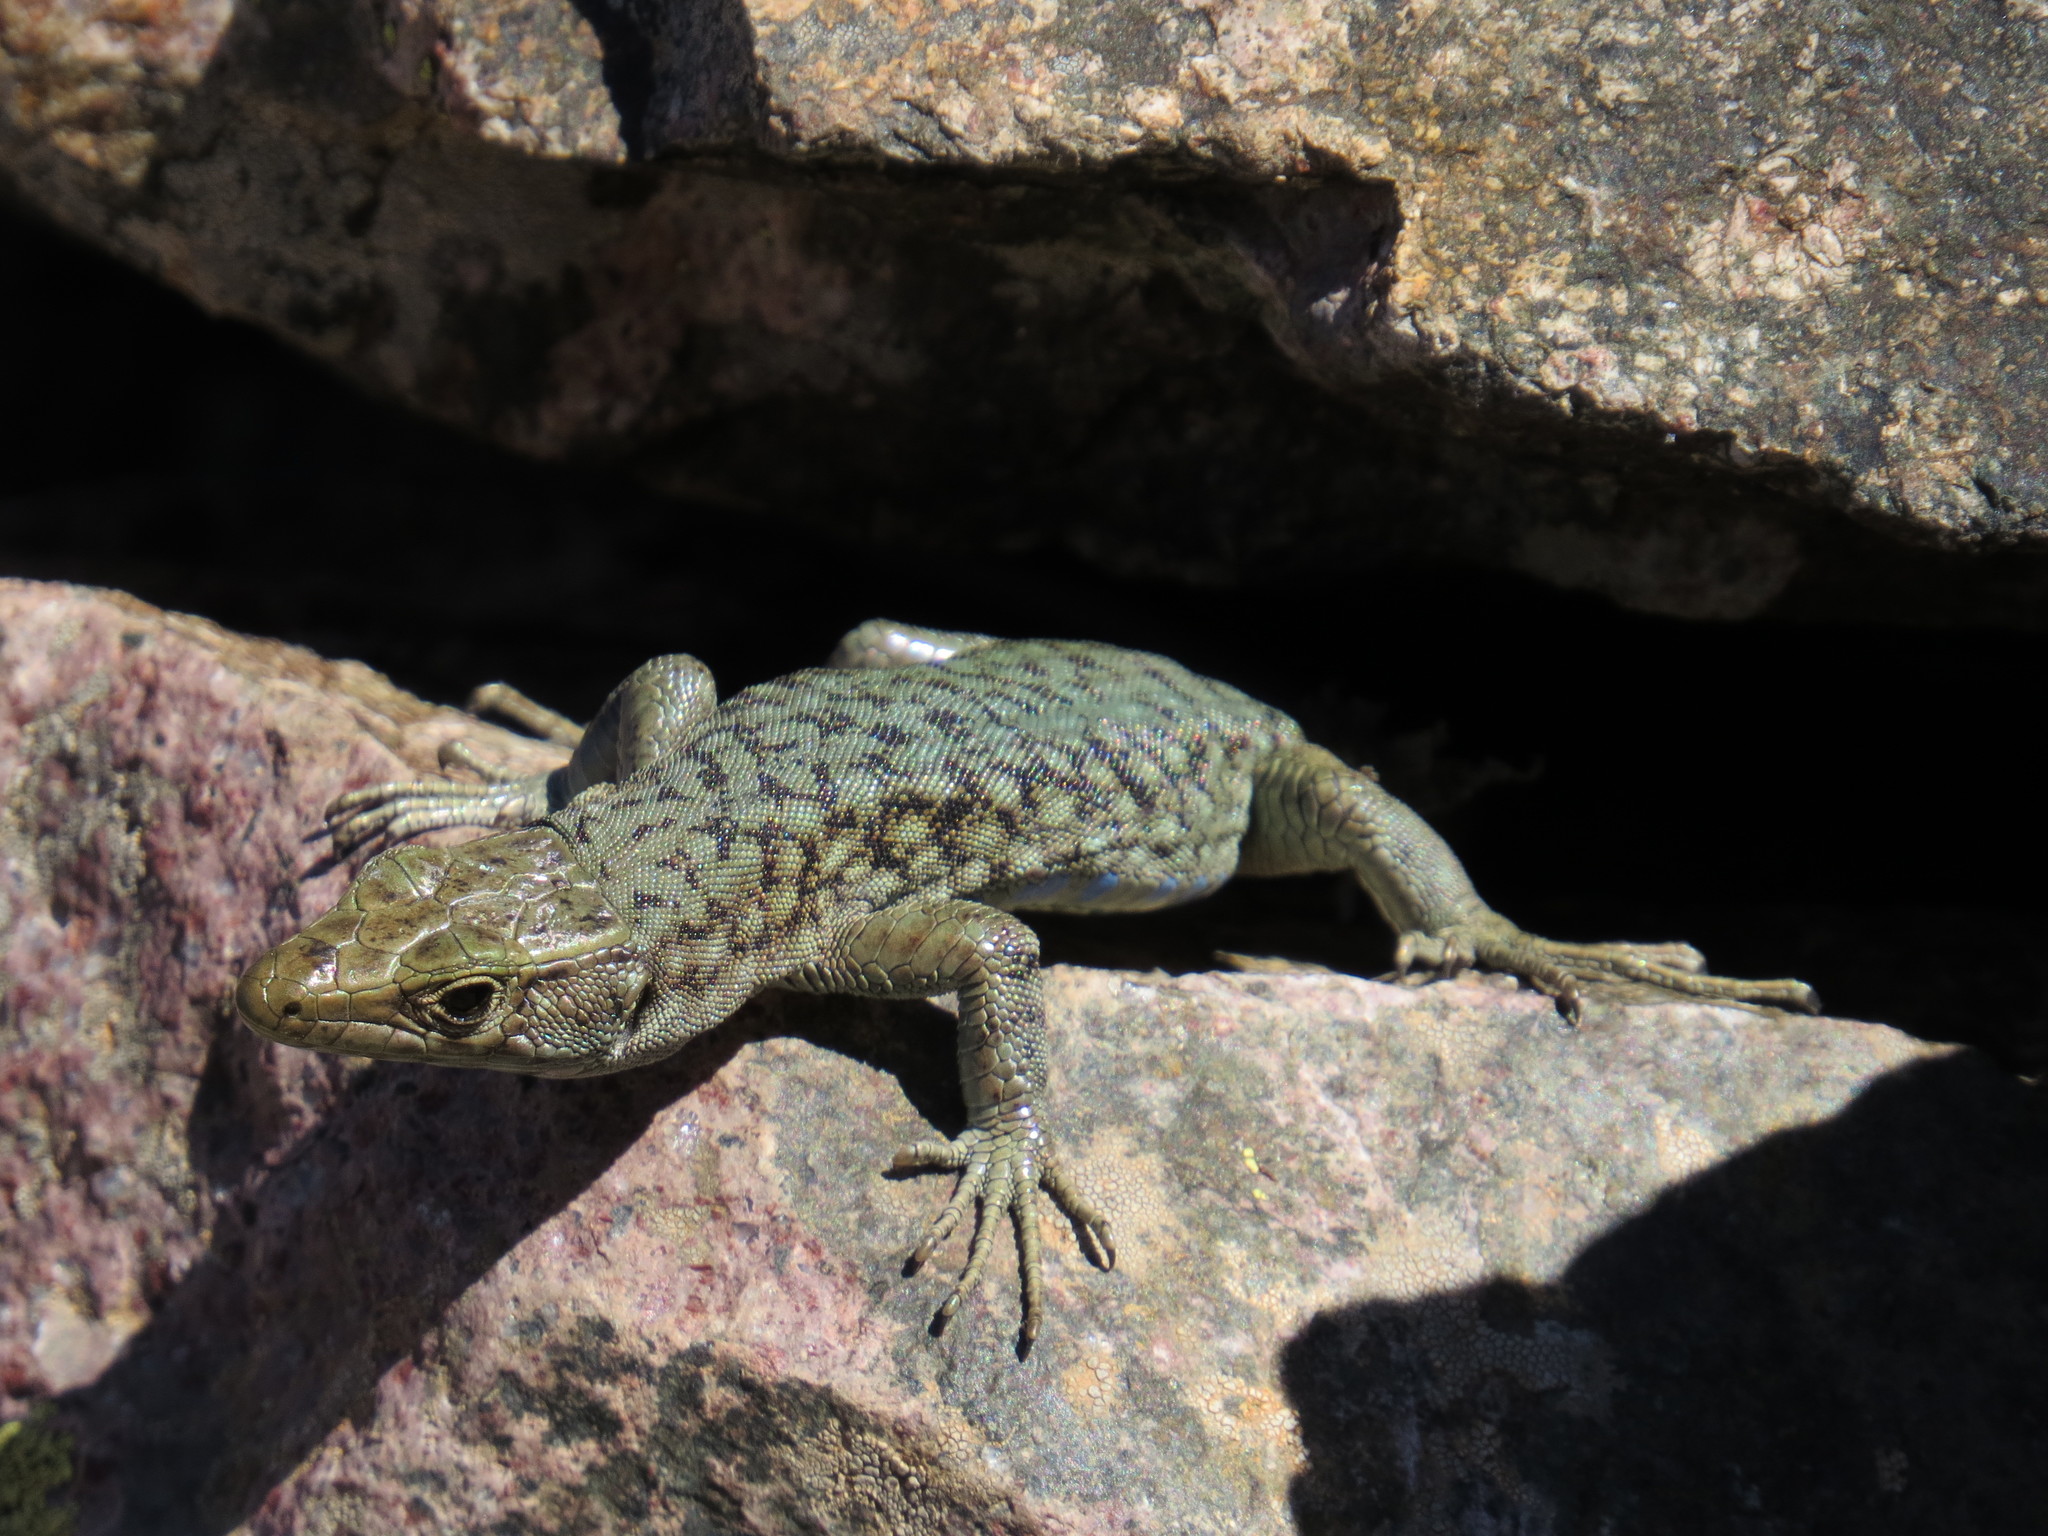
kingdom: Animalia
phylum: Chordata
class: Squamata
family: Lacertidae
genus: Archaeolacerta
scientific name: Archaeolacerta bedriagae
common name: Bedriaga's rock lizard
